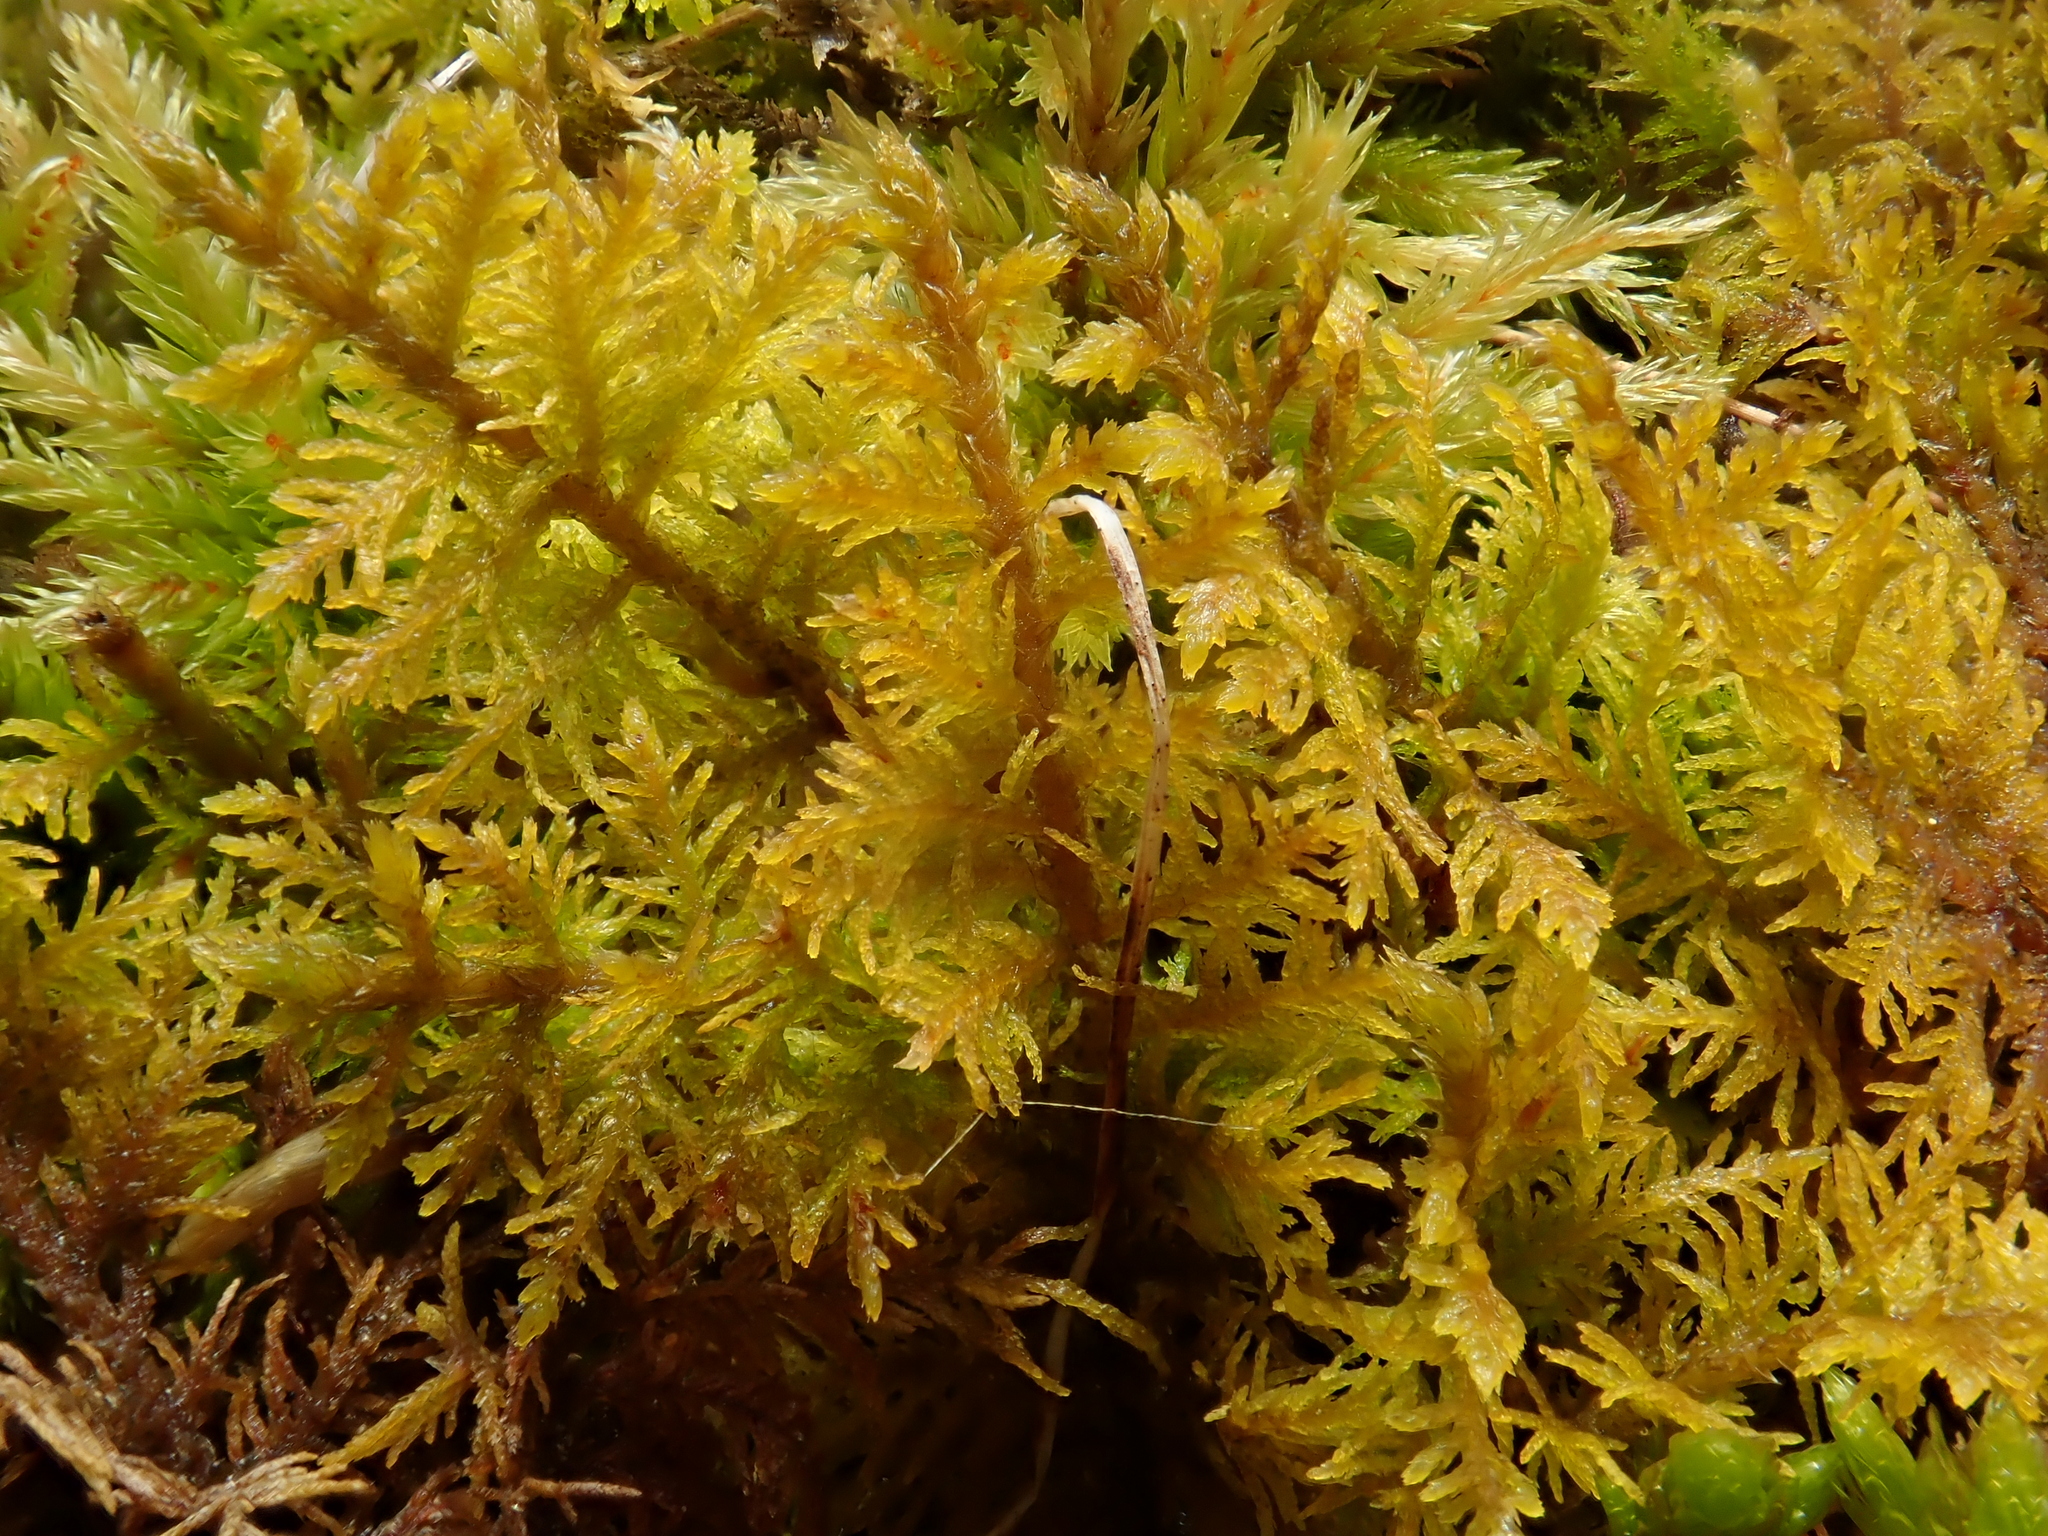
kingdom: Plantae
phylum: Bryophyta
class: Bryopsida
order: Hypnales
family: Thuidiaceae
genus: Thuidium
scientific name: Thuidium assimile
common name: Philibert's fern moss
